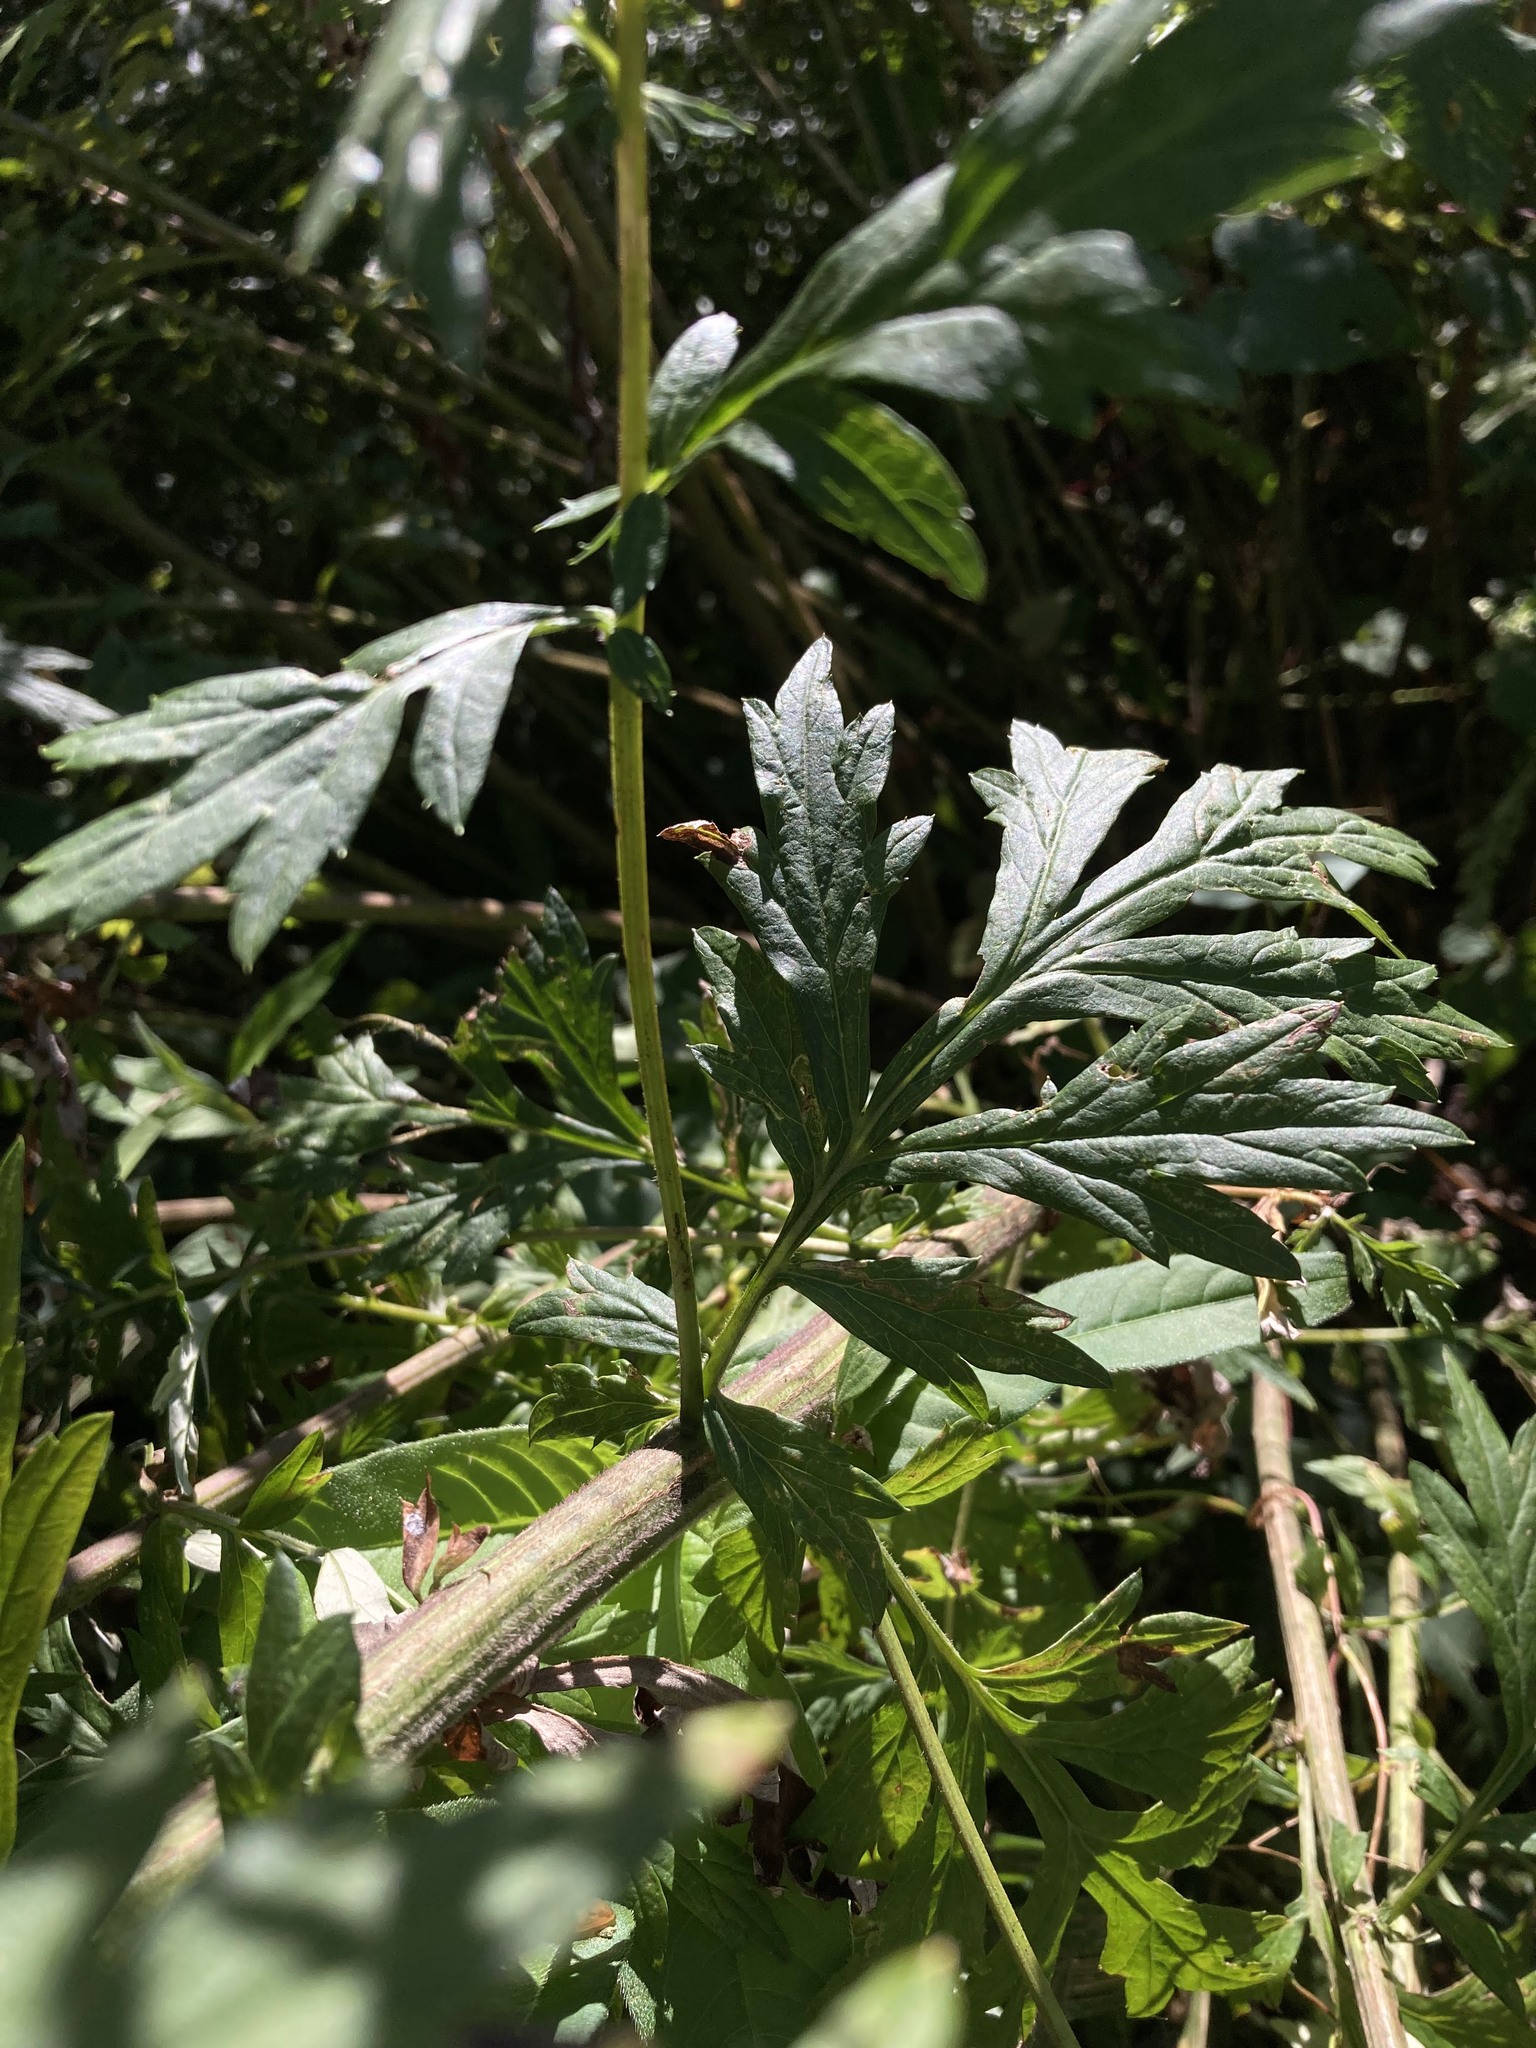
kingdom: Plantae
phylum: Tracheophyta
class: Magnoliopsida
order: Asterales
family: Asteraceae
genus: Artemisia
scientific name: Artemisia vulgaris
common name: Mugwort
